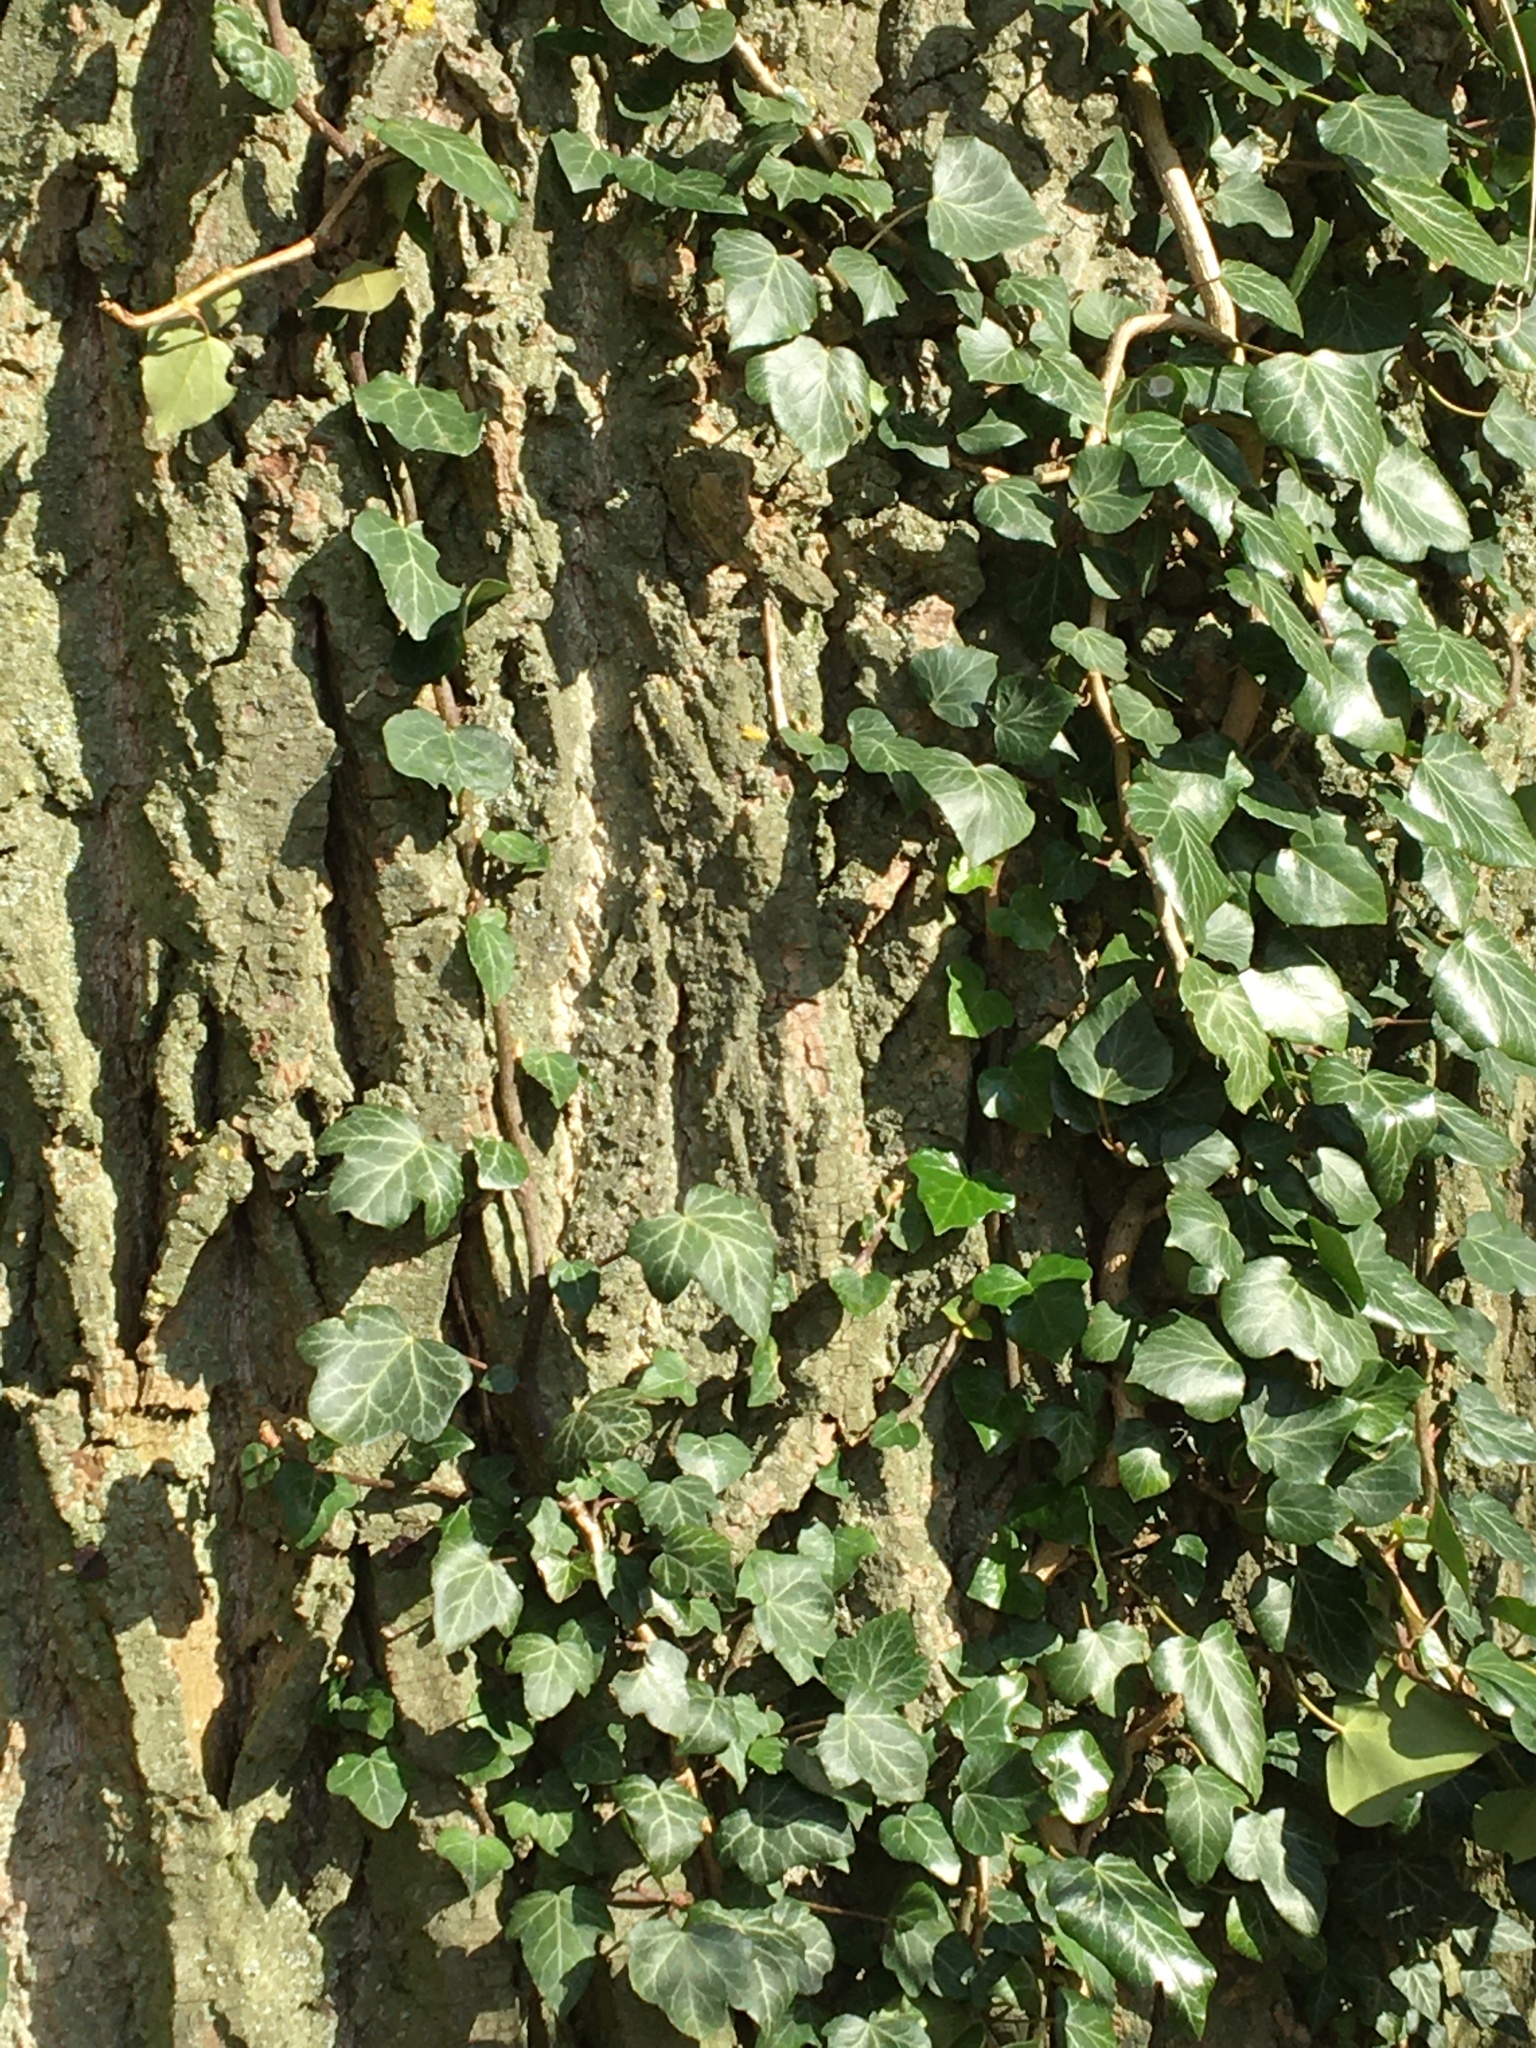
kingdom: Plantae
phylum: Tracheophyta
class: Magnoliopsida
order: Apiales
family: Araliaceae
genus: Hedera
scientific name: Hedera helix
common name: Ivy
